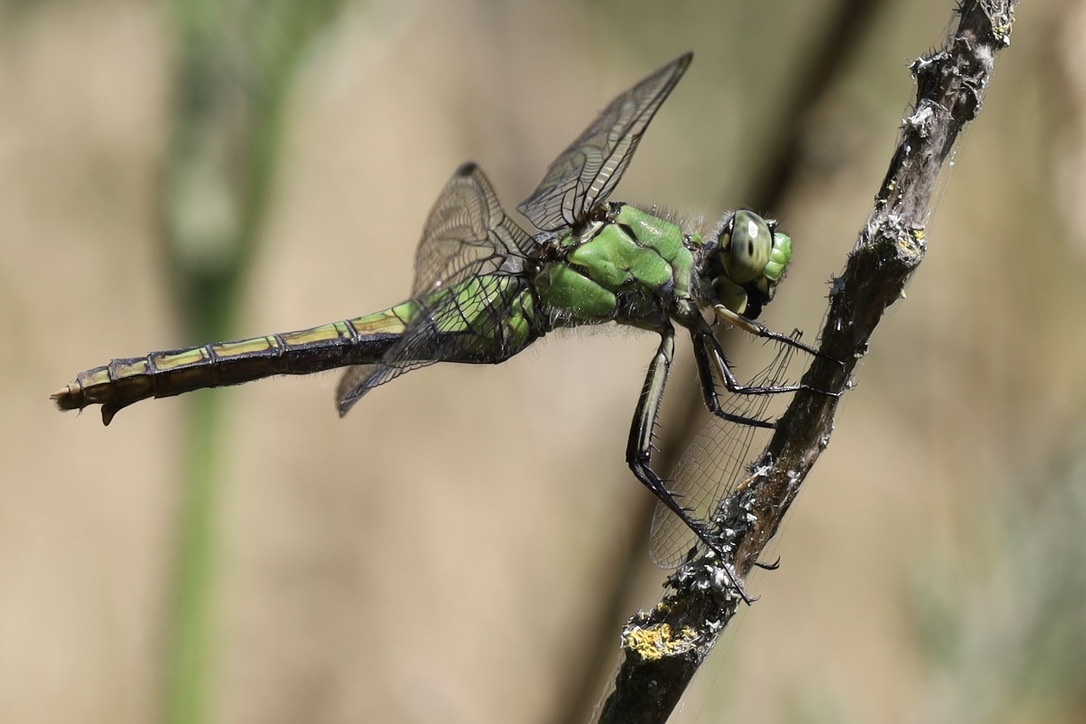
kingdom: Animalia
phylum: Arthropoda
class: Insecta
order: Odonata
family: Libellulidae
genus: Erythemis
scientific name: Erythemis collocata
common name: Western pondhawk
